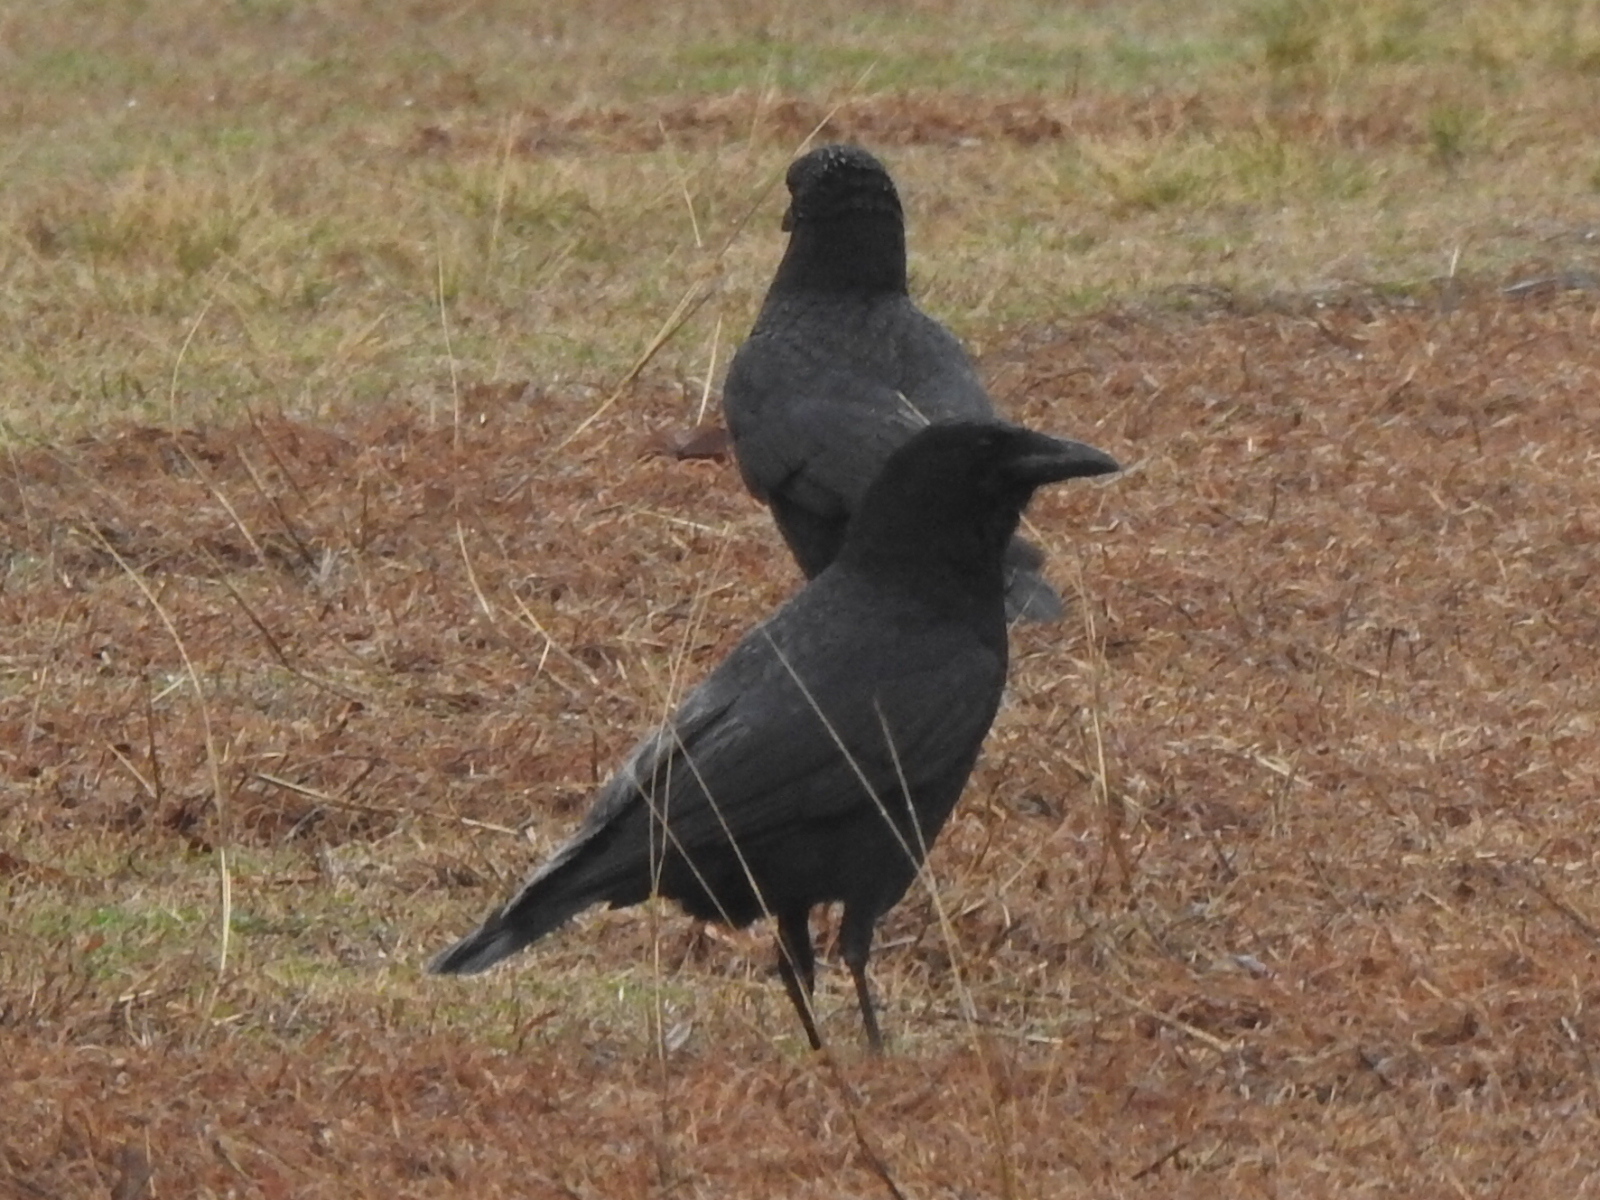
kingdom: Animalia
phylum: Chordata
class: Aves
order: Passeriformes
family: Corvidae
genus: Corvus
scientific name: Corvus brachyrhynchos
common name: American crow
